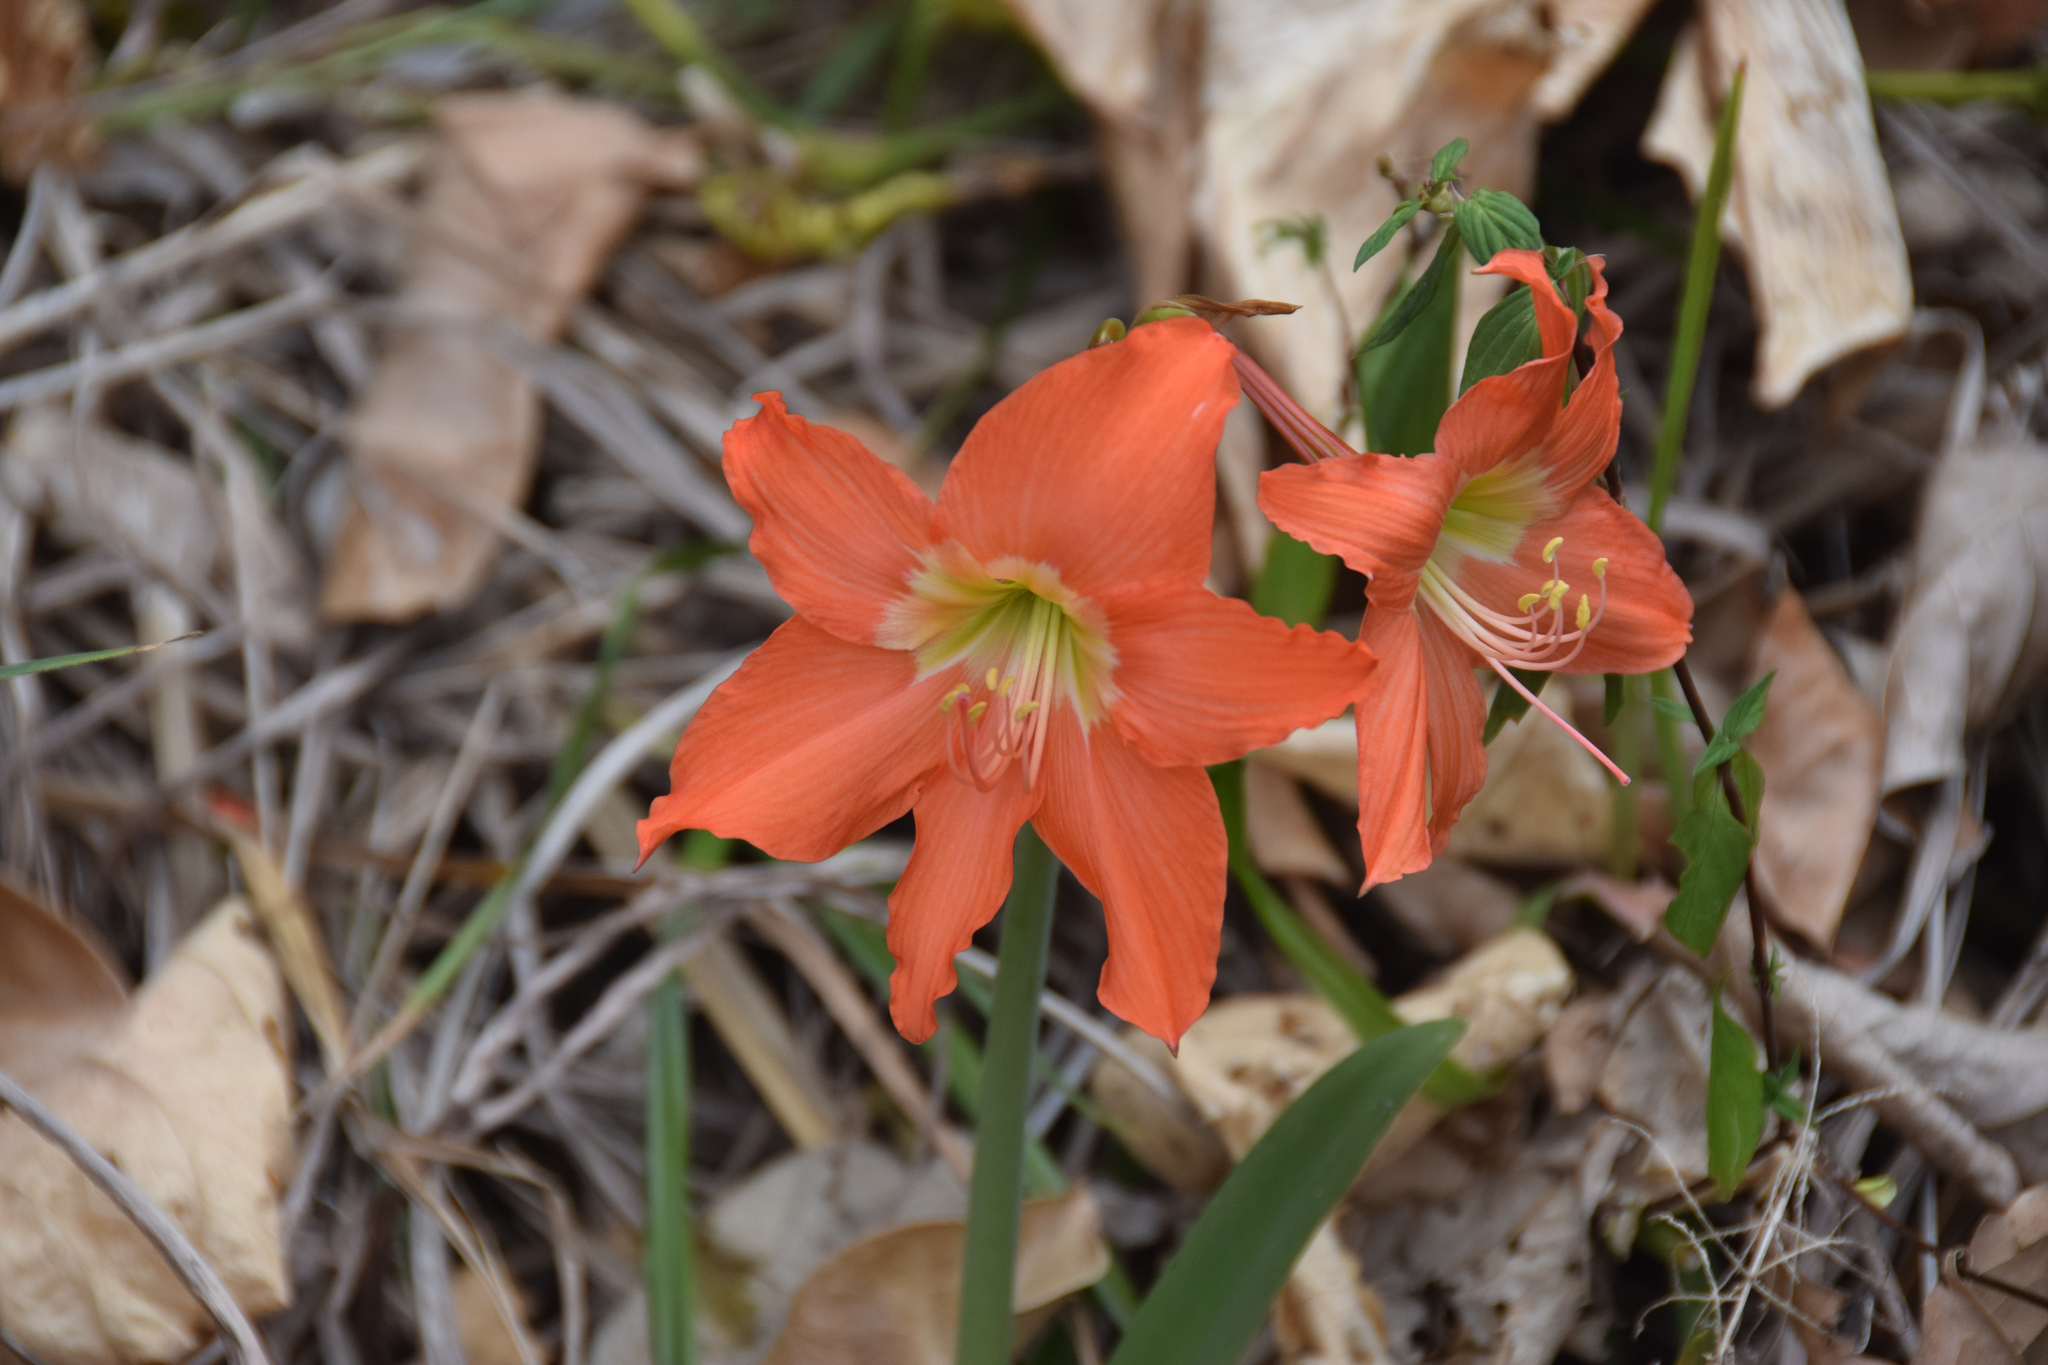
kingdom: Plantae
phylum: Tracheophyta
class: Liliopsida
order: Asparagales
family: Amaryllidaceae
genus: Hippeastrum
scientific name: Hippeastrum puniceum
